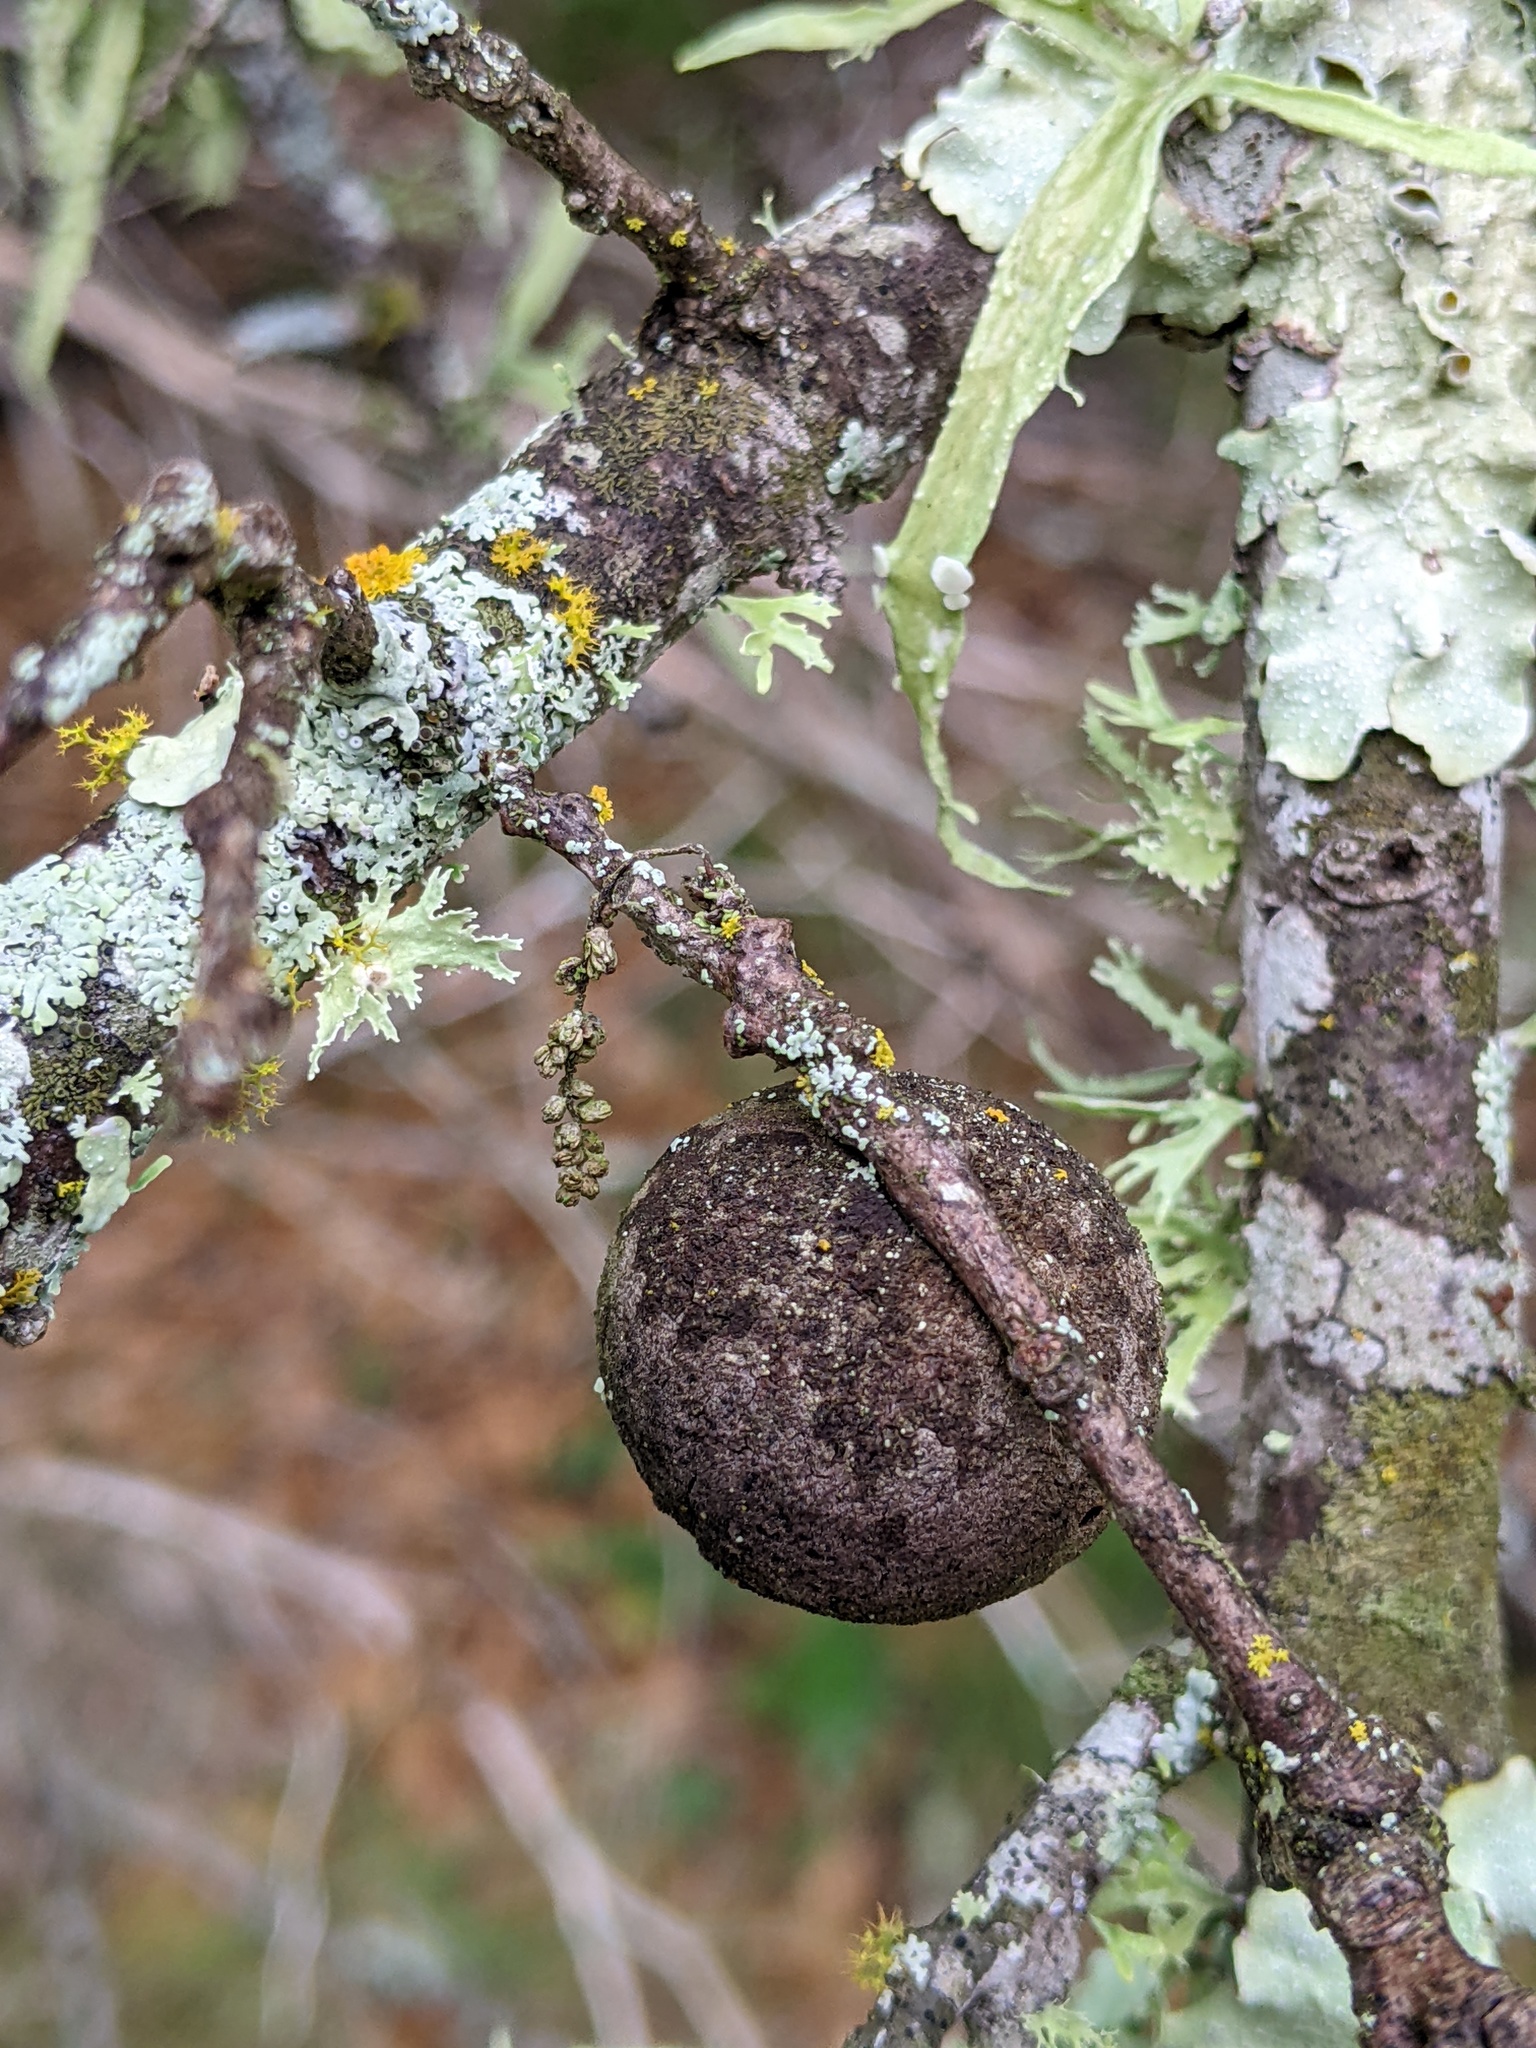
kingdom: Animalia
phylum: Arthropoda
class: Insecta
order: Hymenoptera
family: Cynipidae
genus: Disholcaspis
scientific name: Disholcaspis
